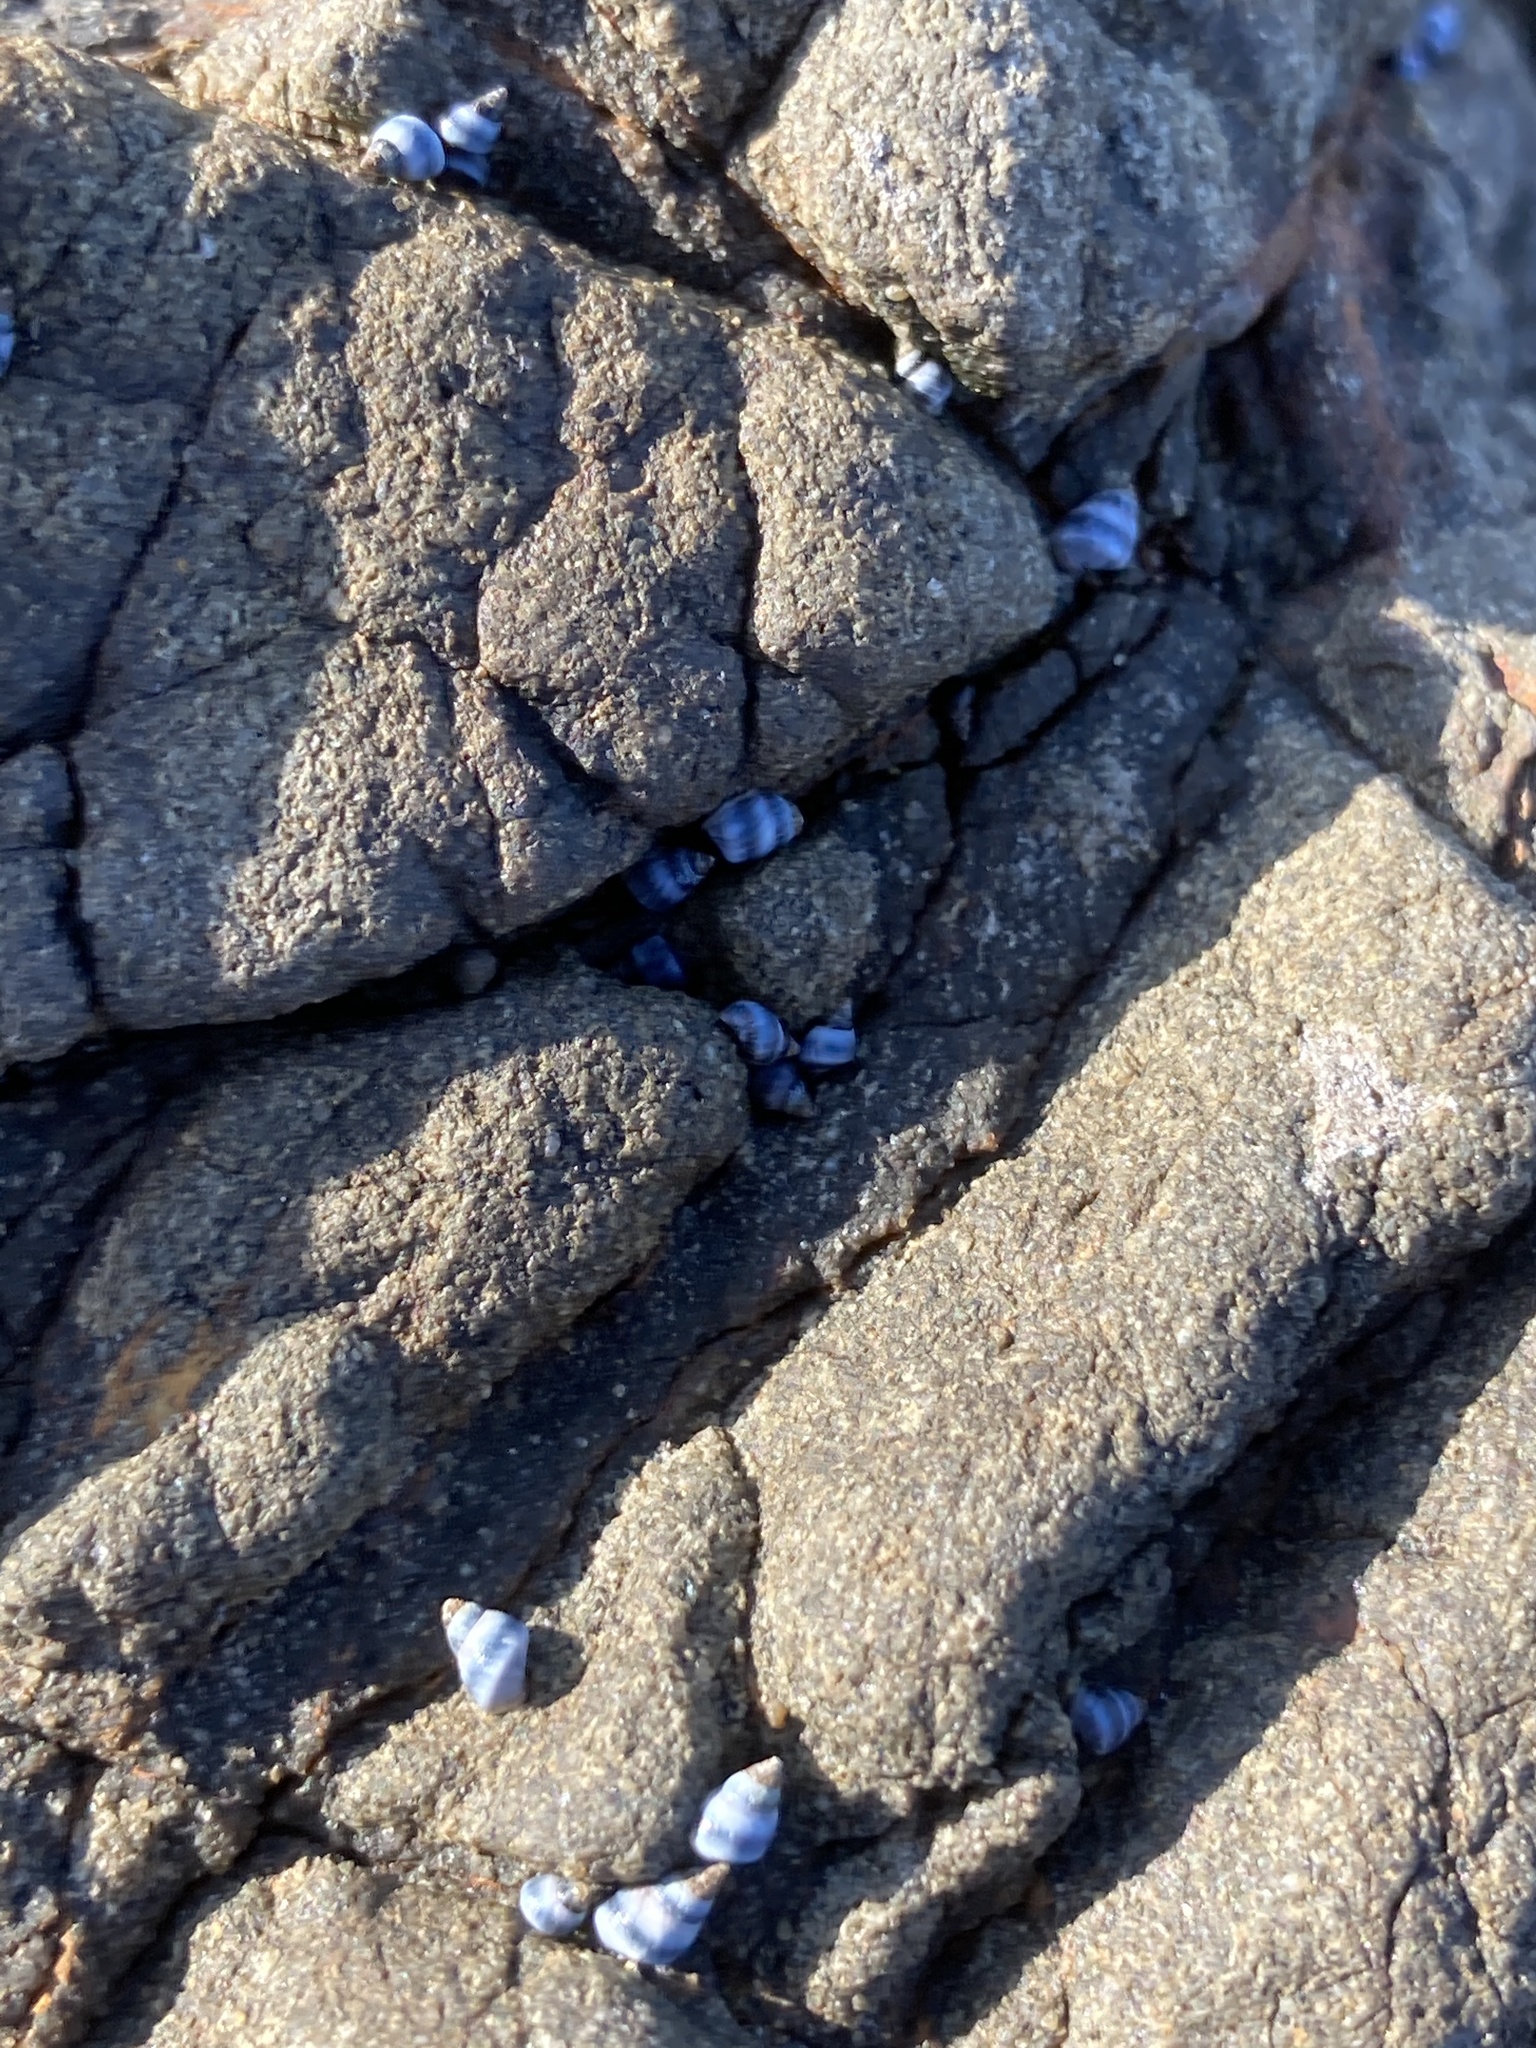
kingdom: Animalia
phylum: Mollusca
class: Gastropoda
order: Littorinimorpha
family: Littorinidae
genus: Austrolittorina
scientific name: Austrolittorina antipodum
